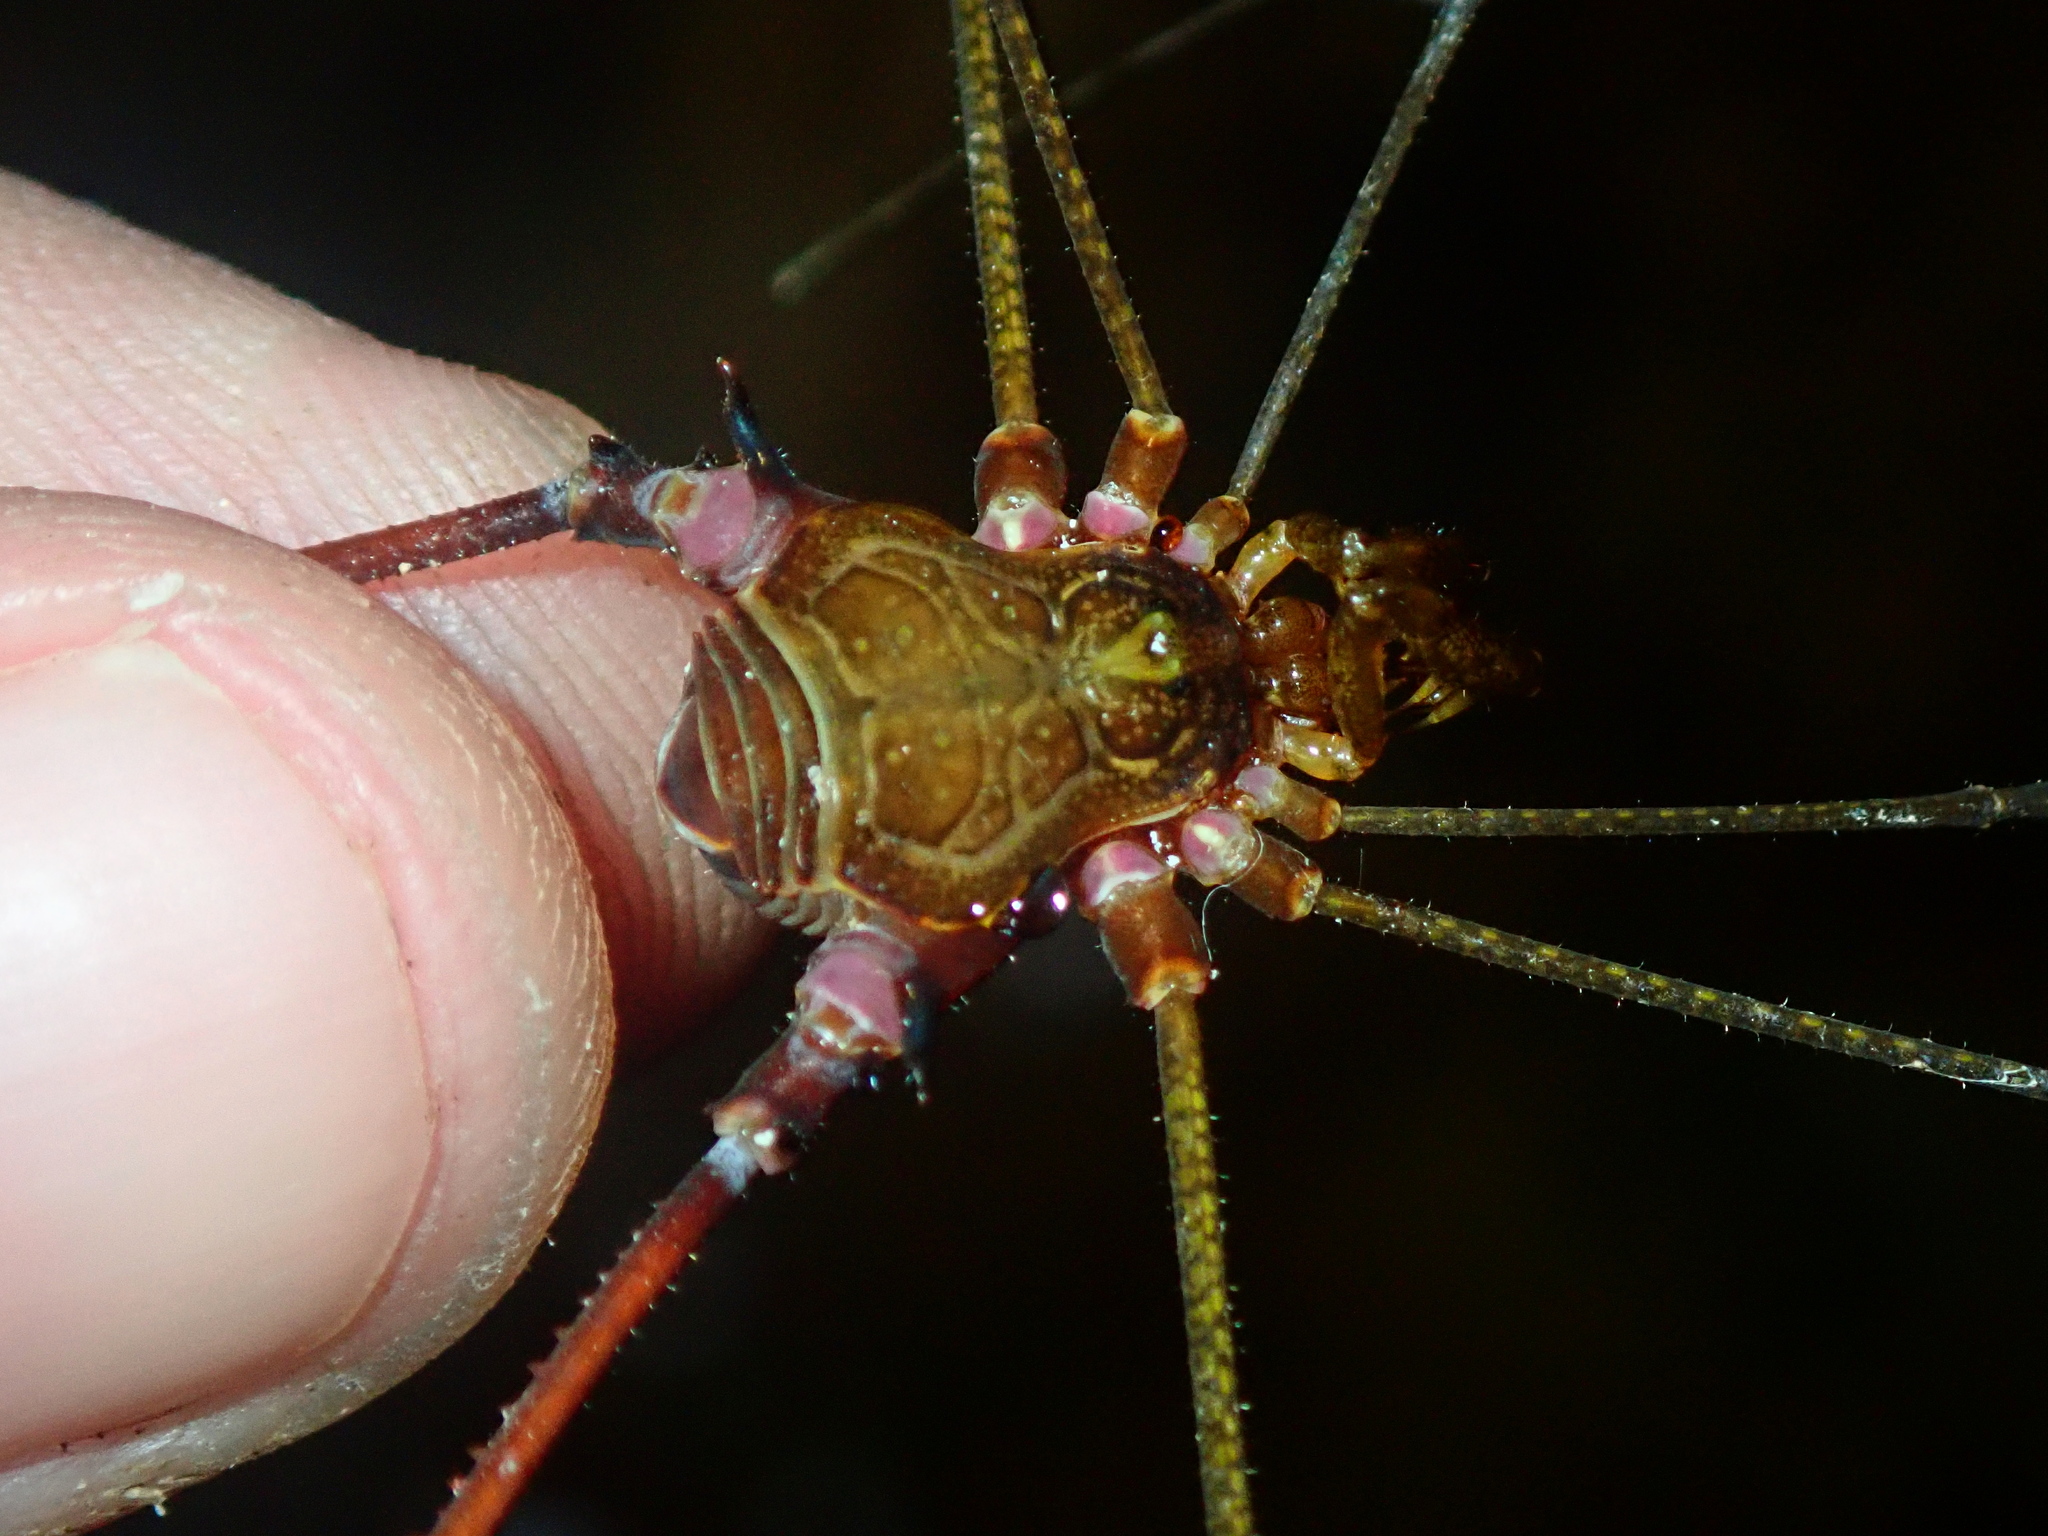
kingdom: Animalia
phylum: Arthropoda
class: Arachnida
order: Opiliones
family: Gonyleptidae
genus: Serracutisoma
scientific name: Serracutisoma inerme
